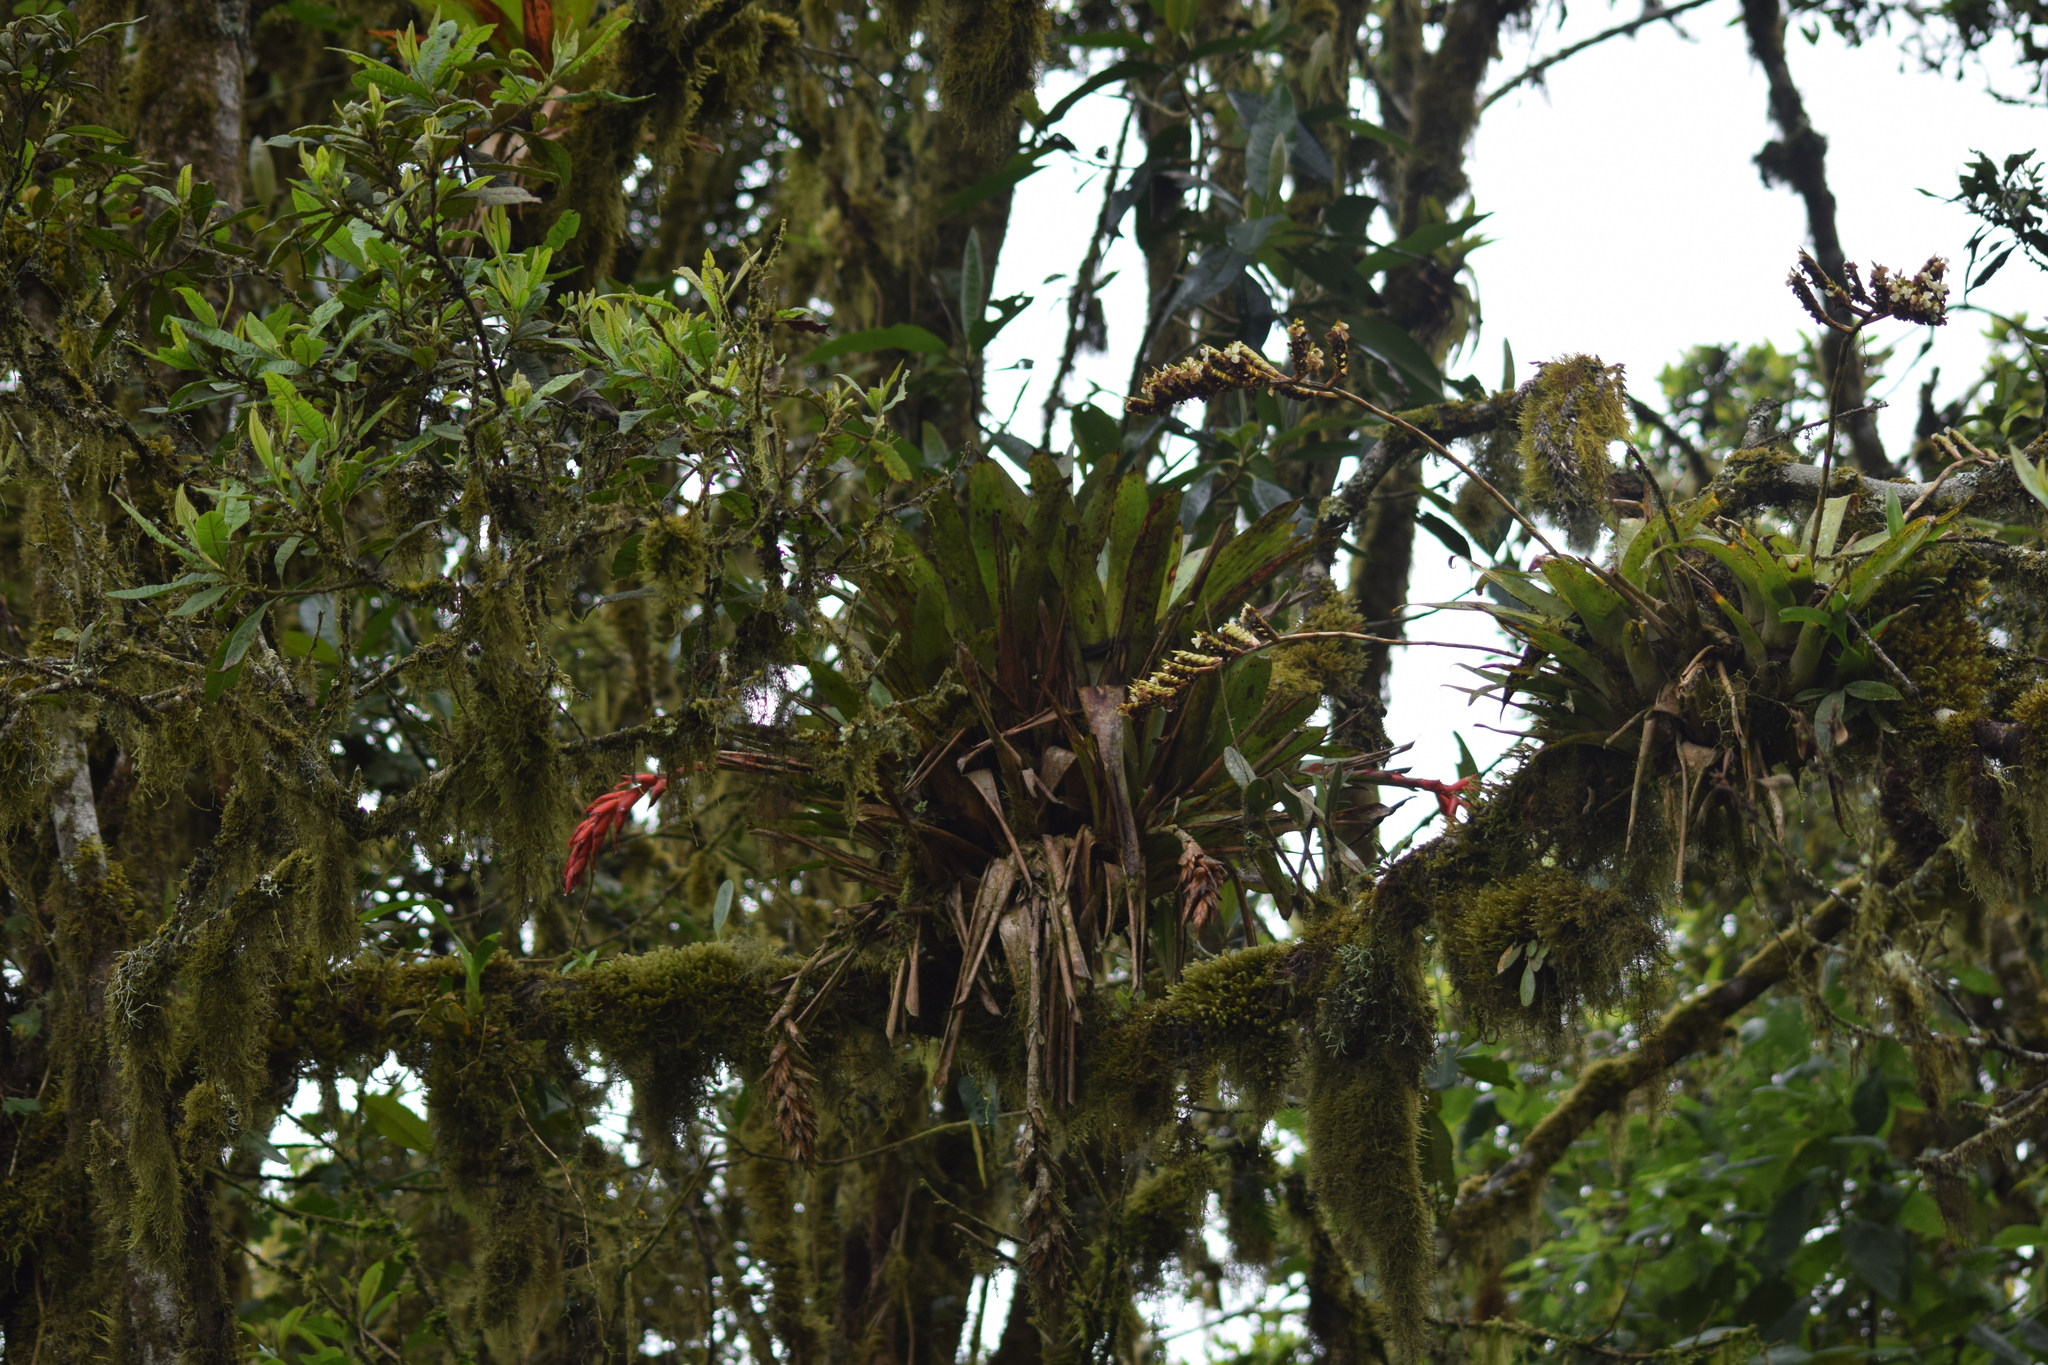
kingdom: Plantae
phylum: Tracheophyta
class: Liliopsida
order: Poales
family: Bromeliaceae
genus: Tillandsia
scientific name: Tillandsia compacta
